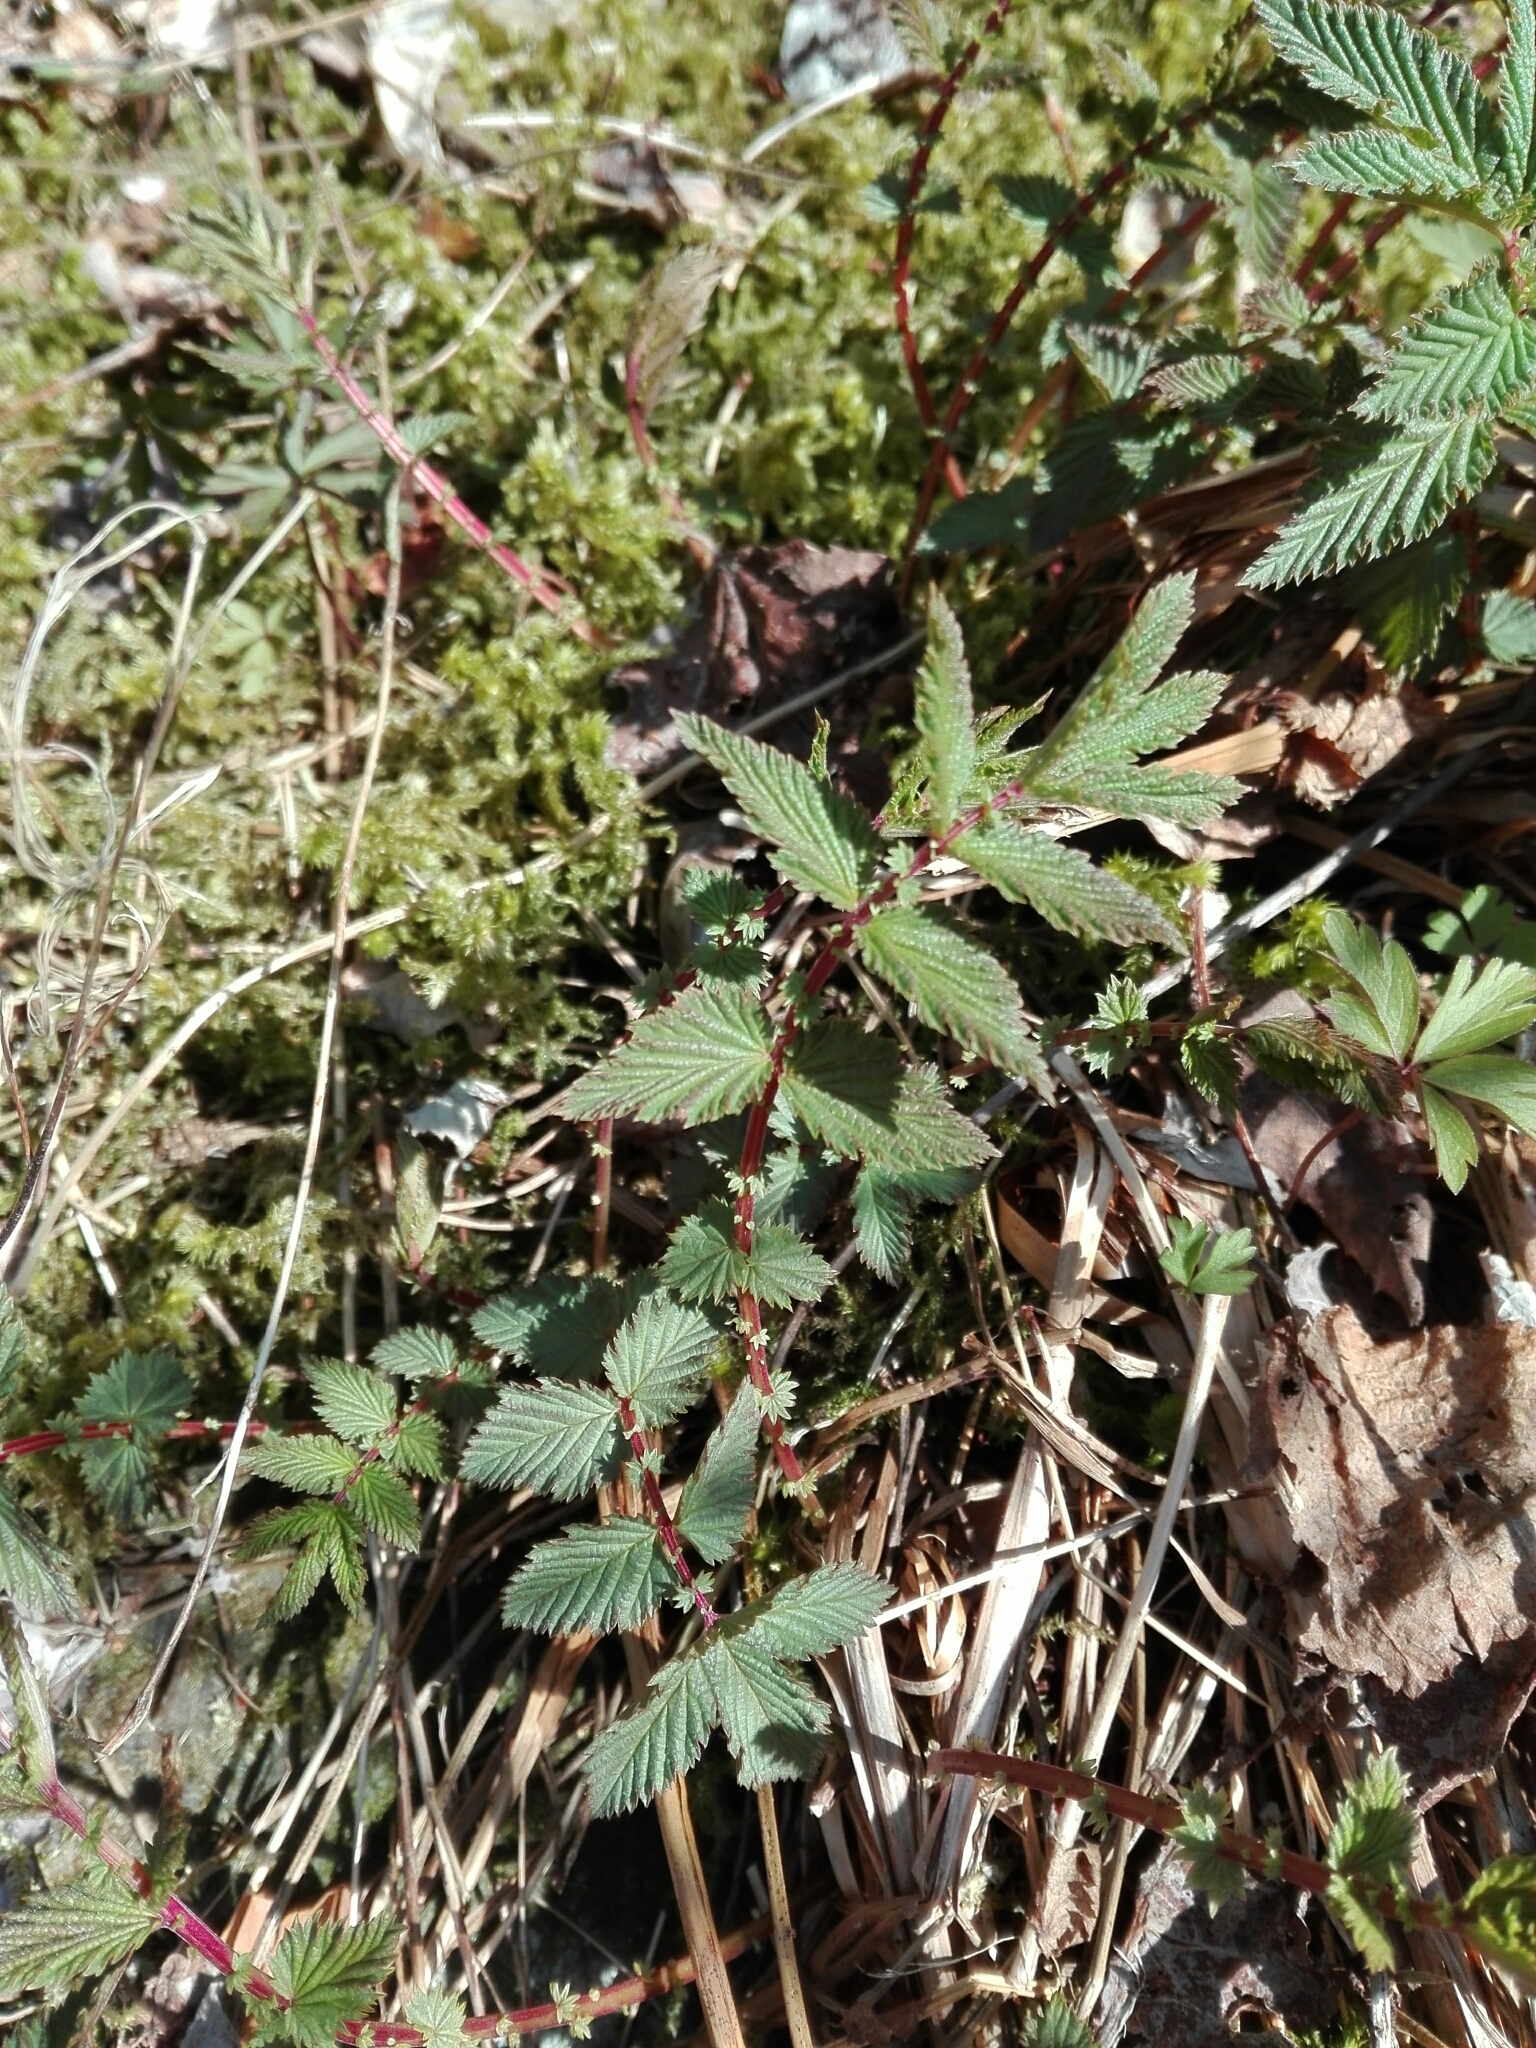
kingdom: Plantae
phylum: Tracheophyta
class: Magnoliopsida
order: Rosales
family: Rosaceae
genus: Filipendula
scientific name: Filipendula ulmaria
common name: Meadowsweet
